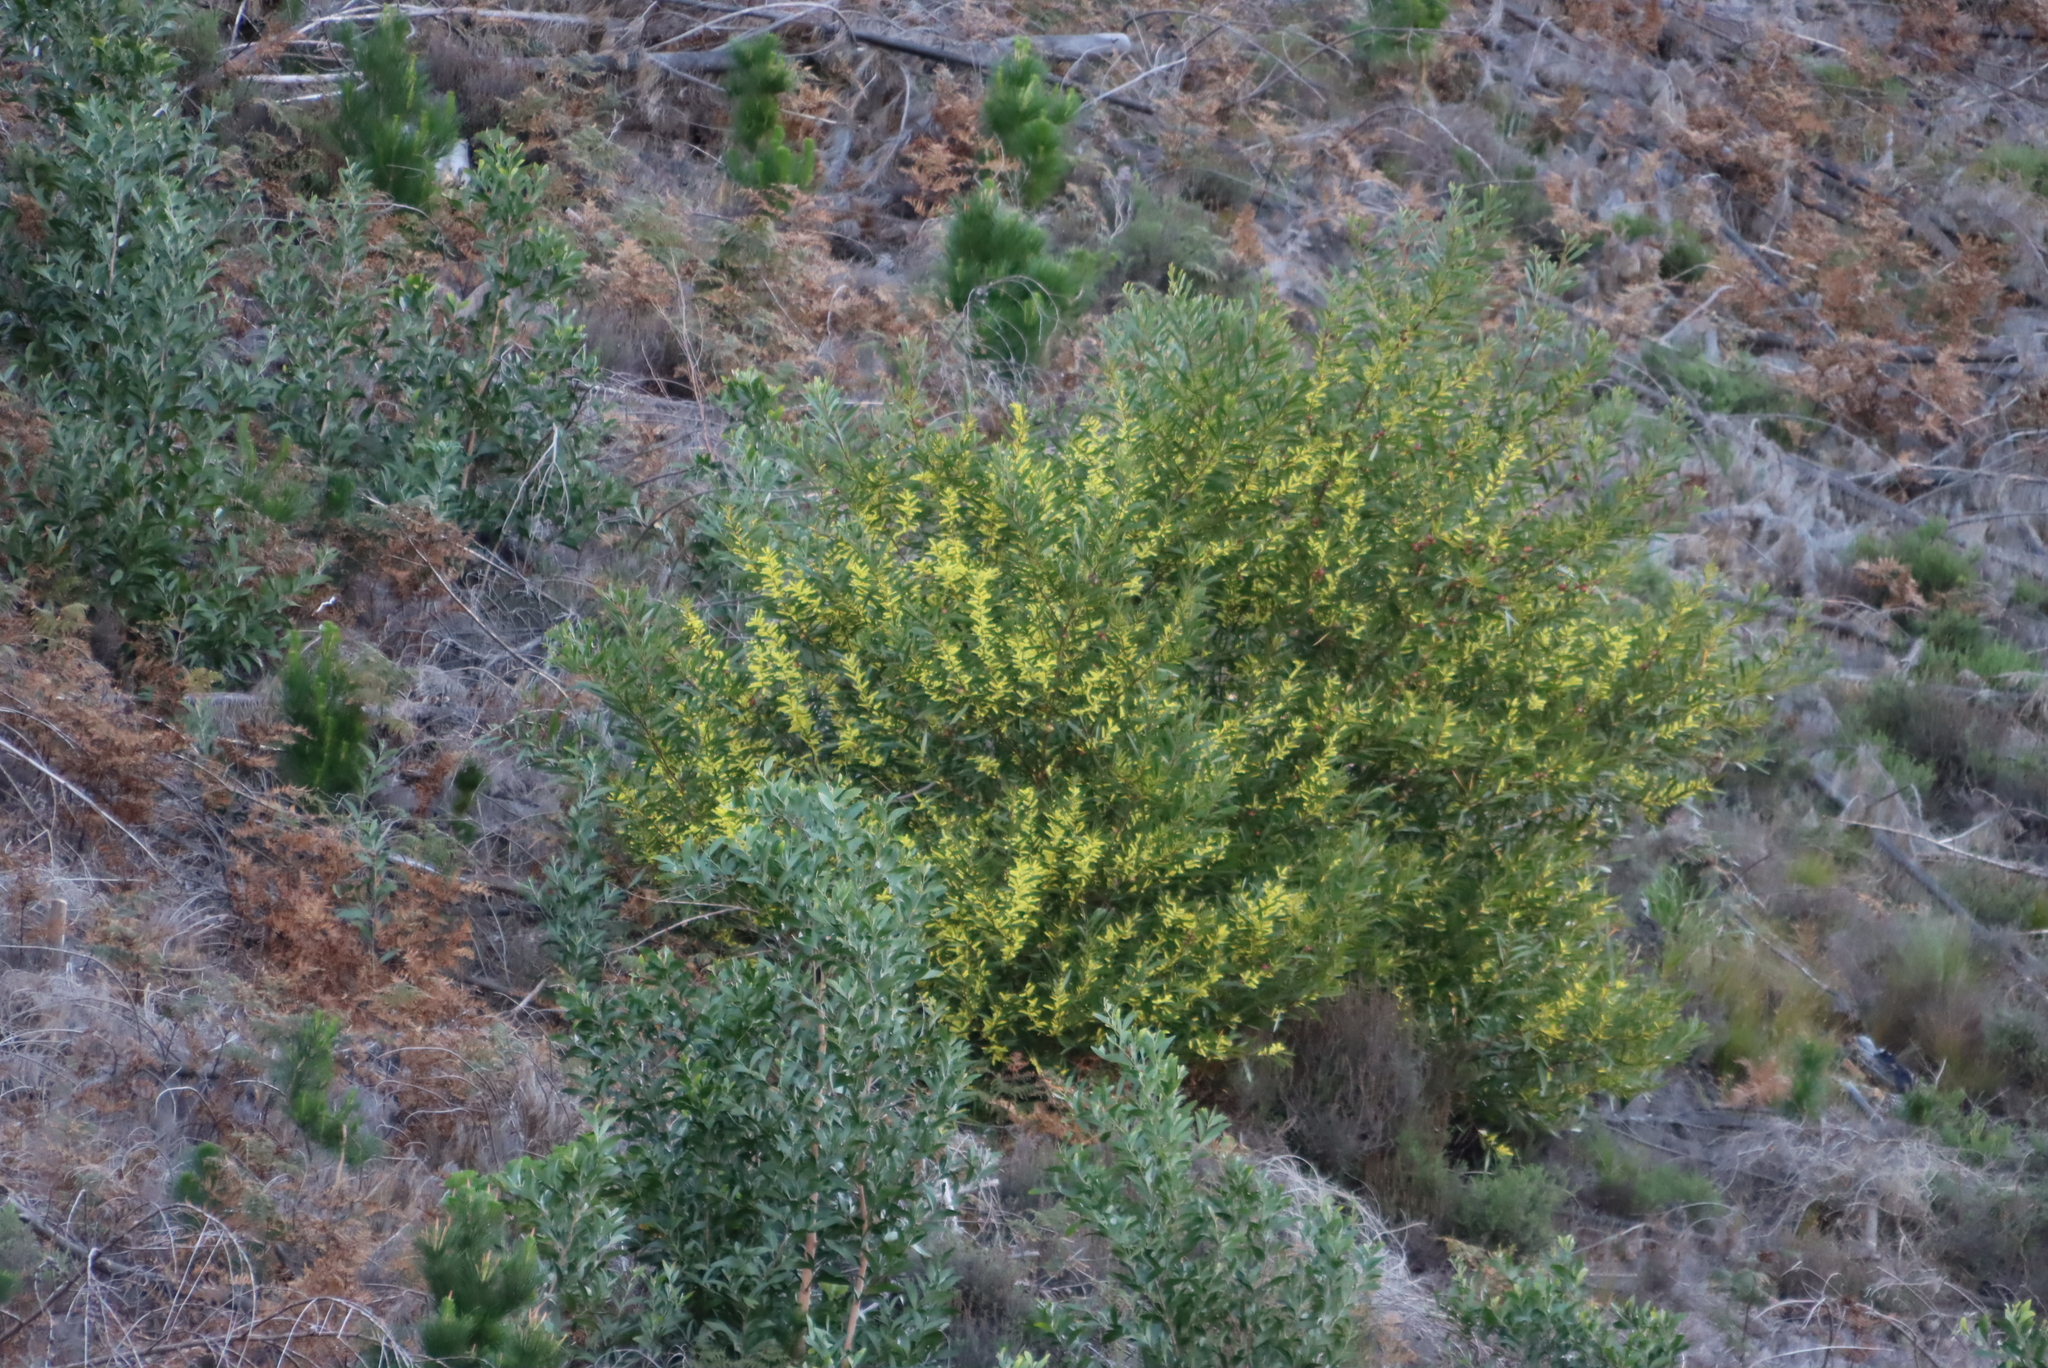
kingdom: Plantae
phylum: Tracheophyta
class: Magnoliopsida
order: Fabales
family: Fabaceae
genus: Acacia
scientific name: Acacia melanoxylon
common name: Blackwood
